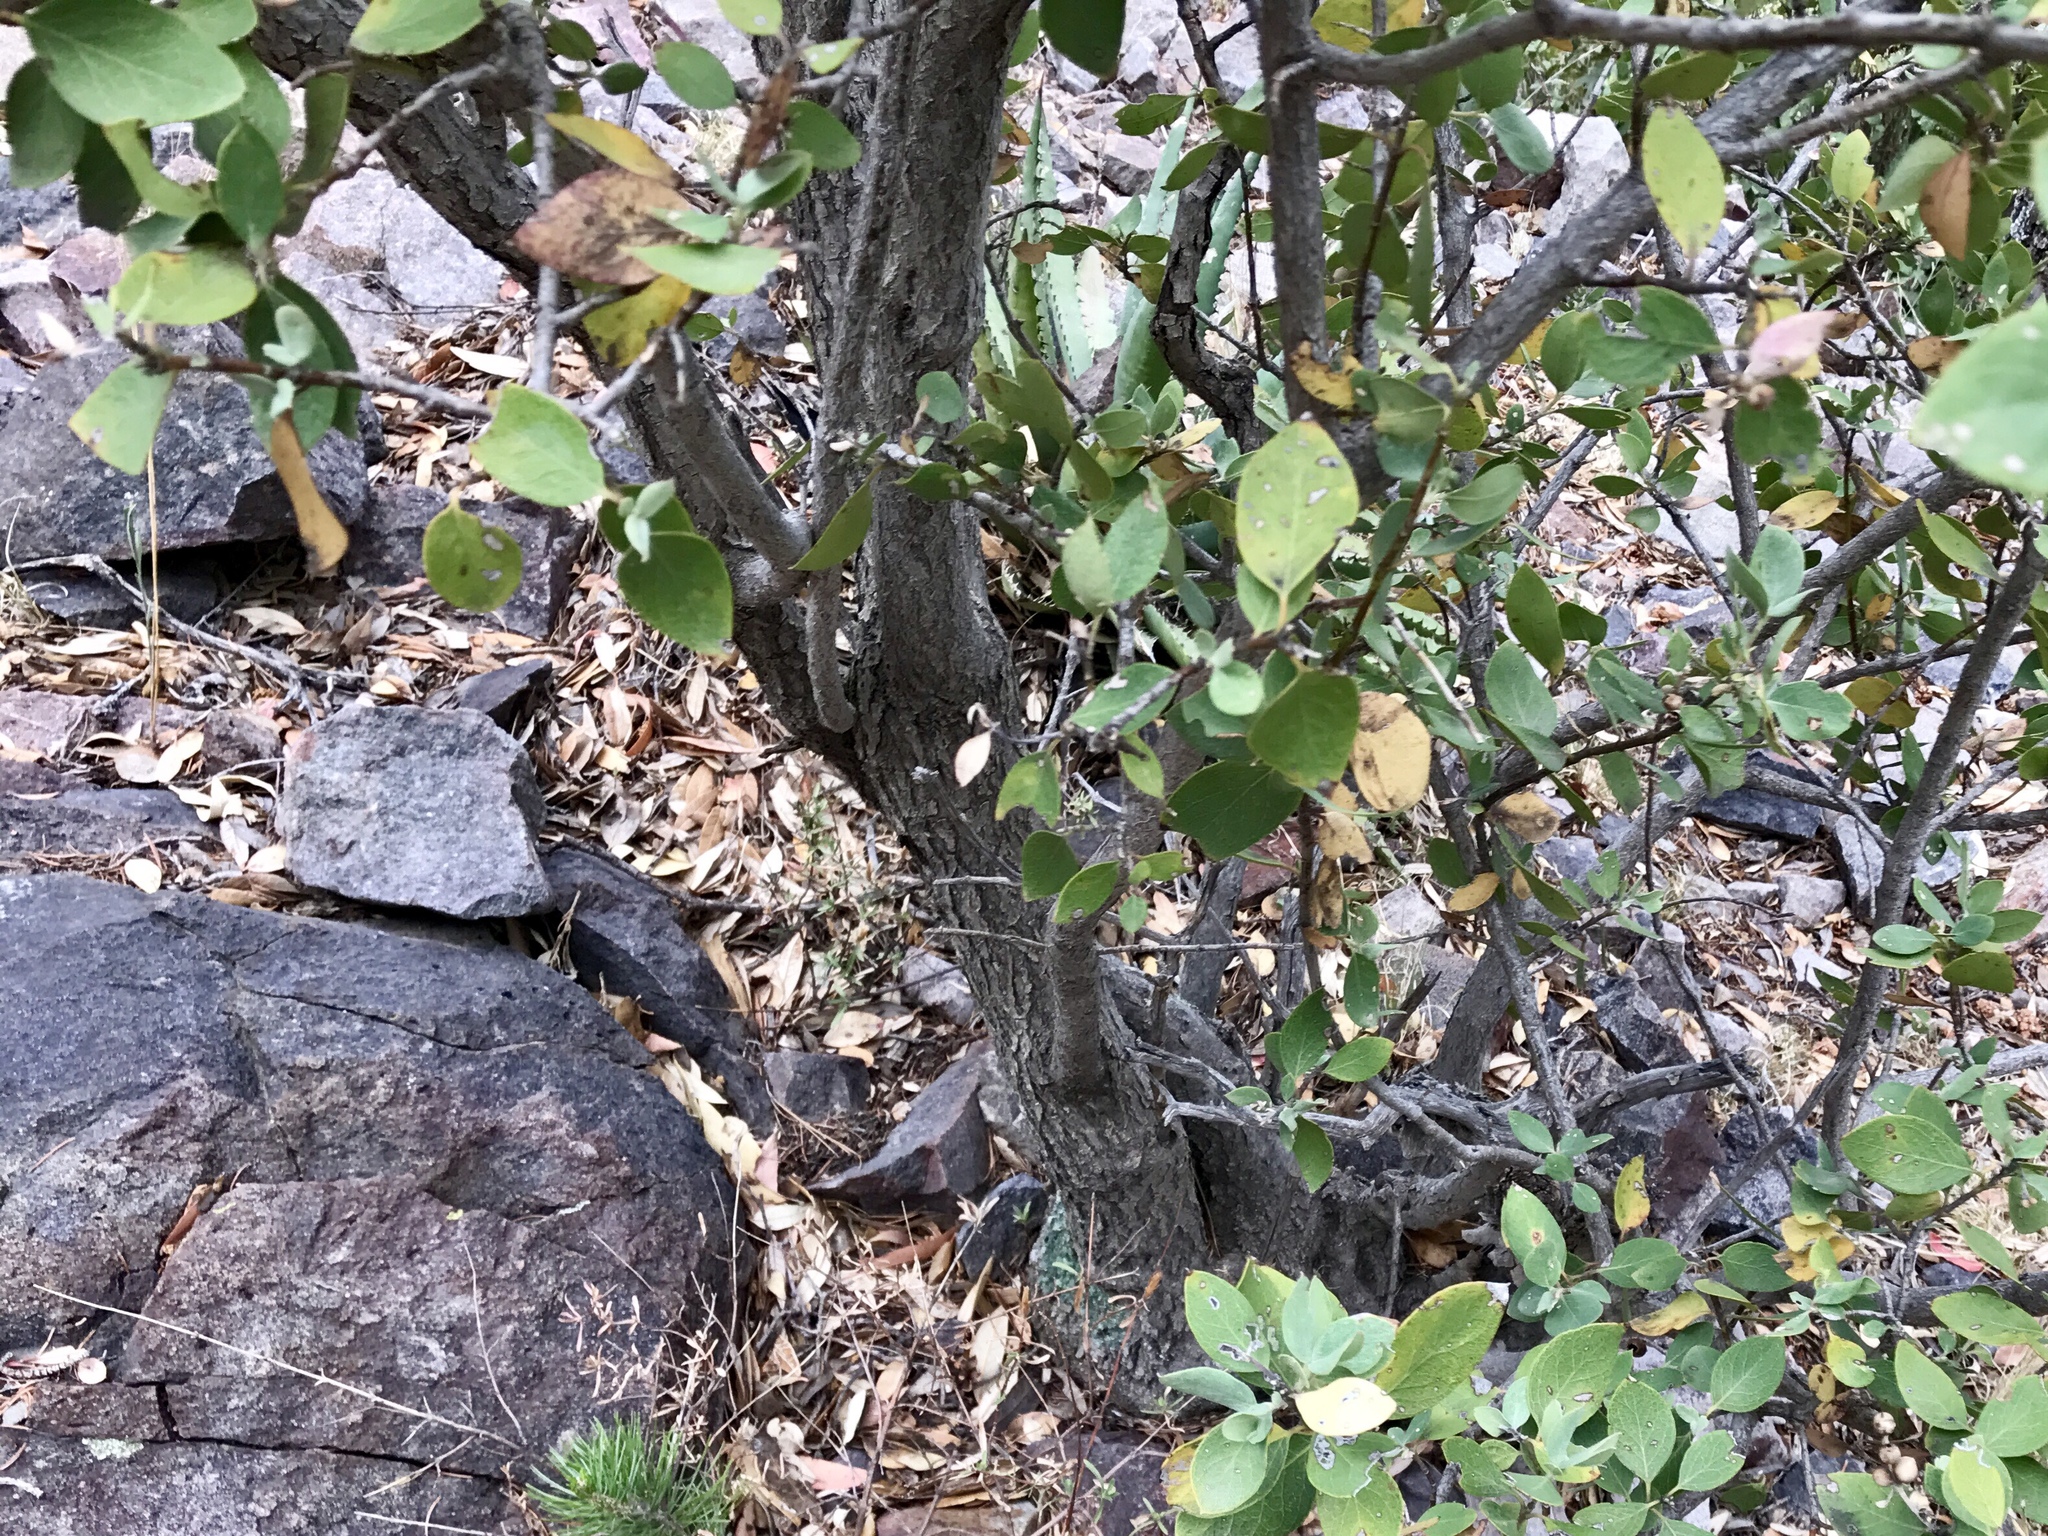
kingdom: Plantae
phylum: Tracheophyta
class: Magnoliopsida
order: Garryales
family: Garryaceae
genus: Garrya
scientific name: Garrya wrightii
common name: Wright's silktassel
